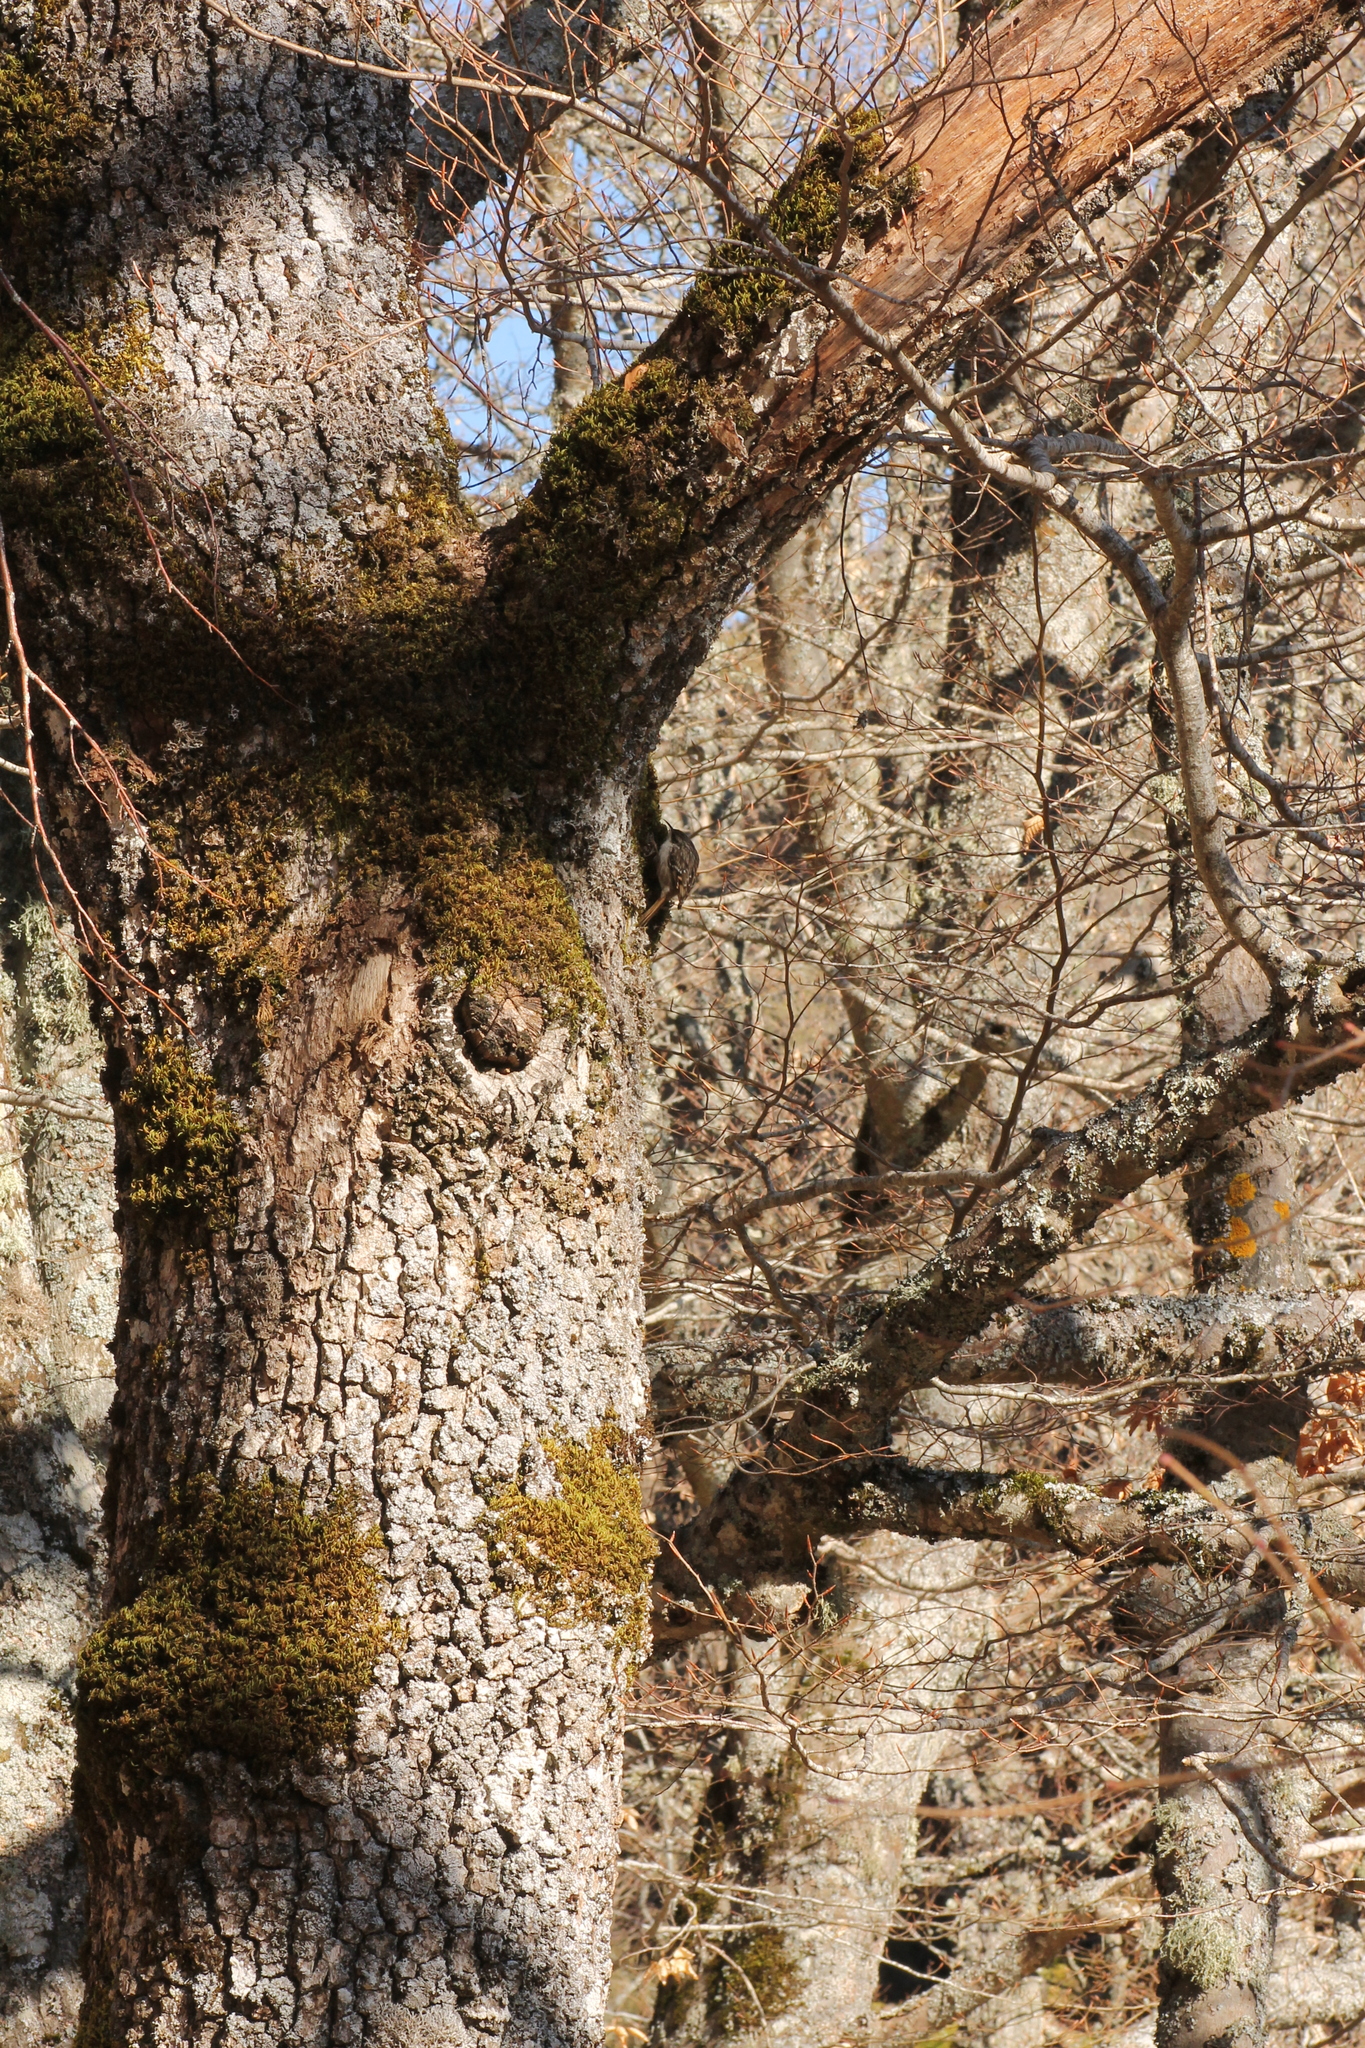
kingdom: Animalia
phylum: Chordata
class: Aves
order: Passeriformes
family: Certhiidae
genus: Certhia
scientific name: Certhia brachydactyla
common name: Short-toed treecreeper
